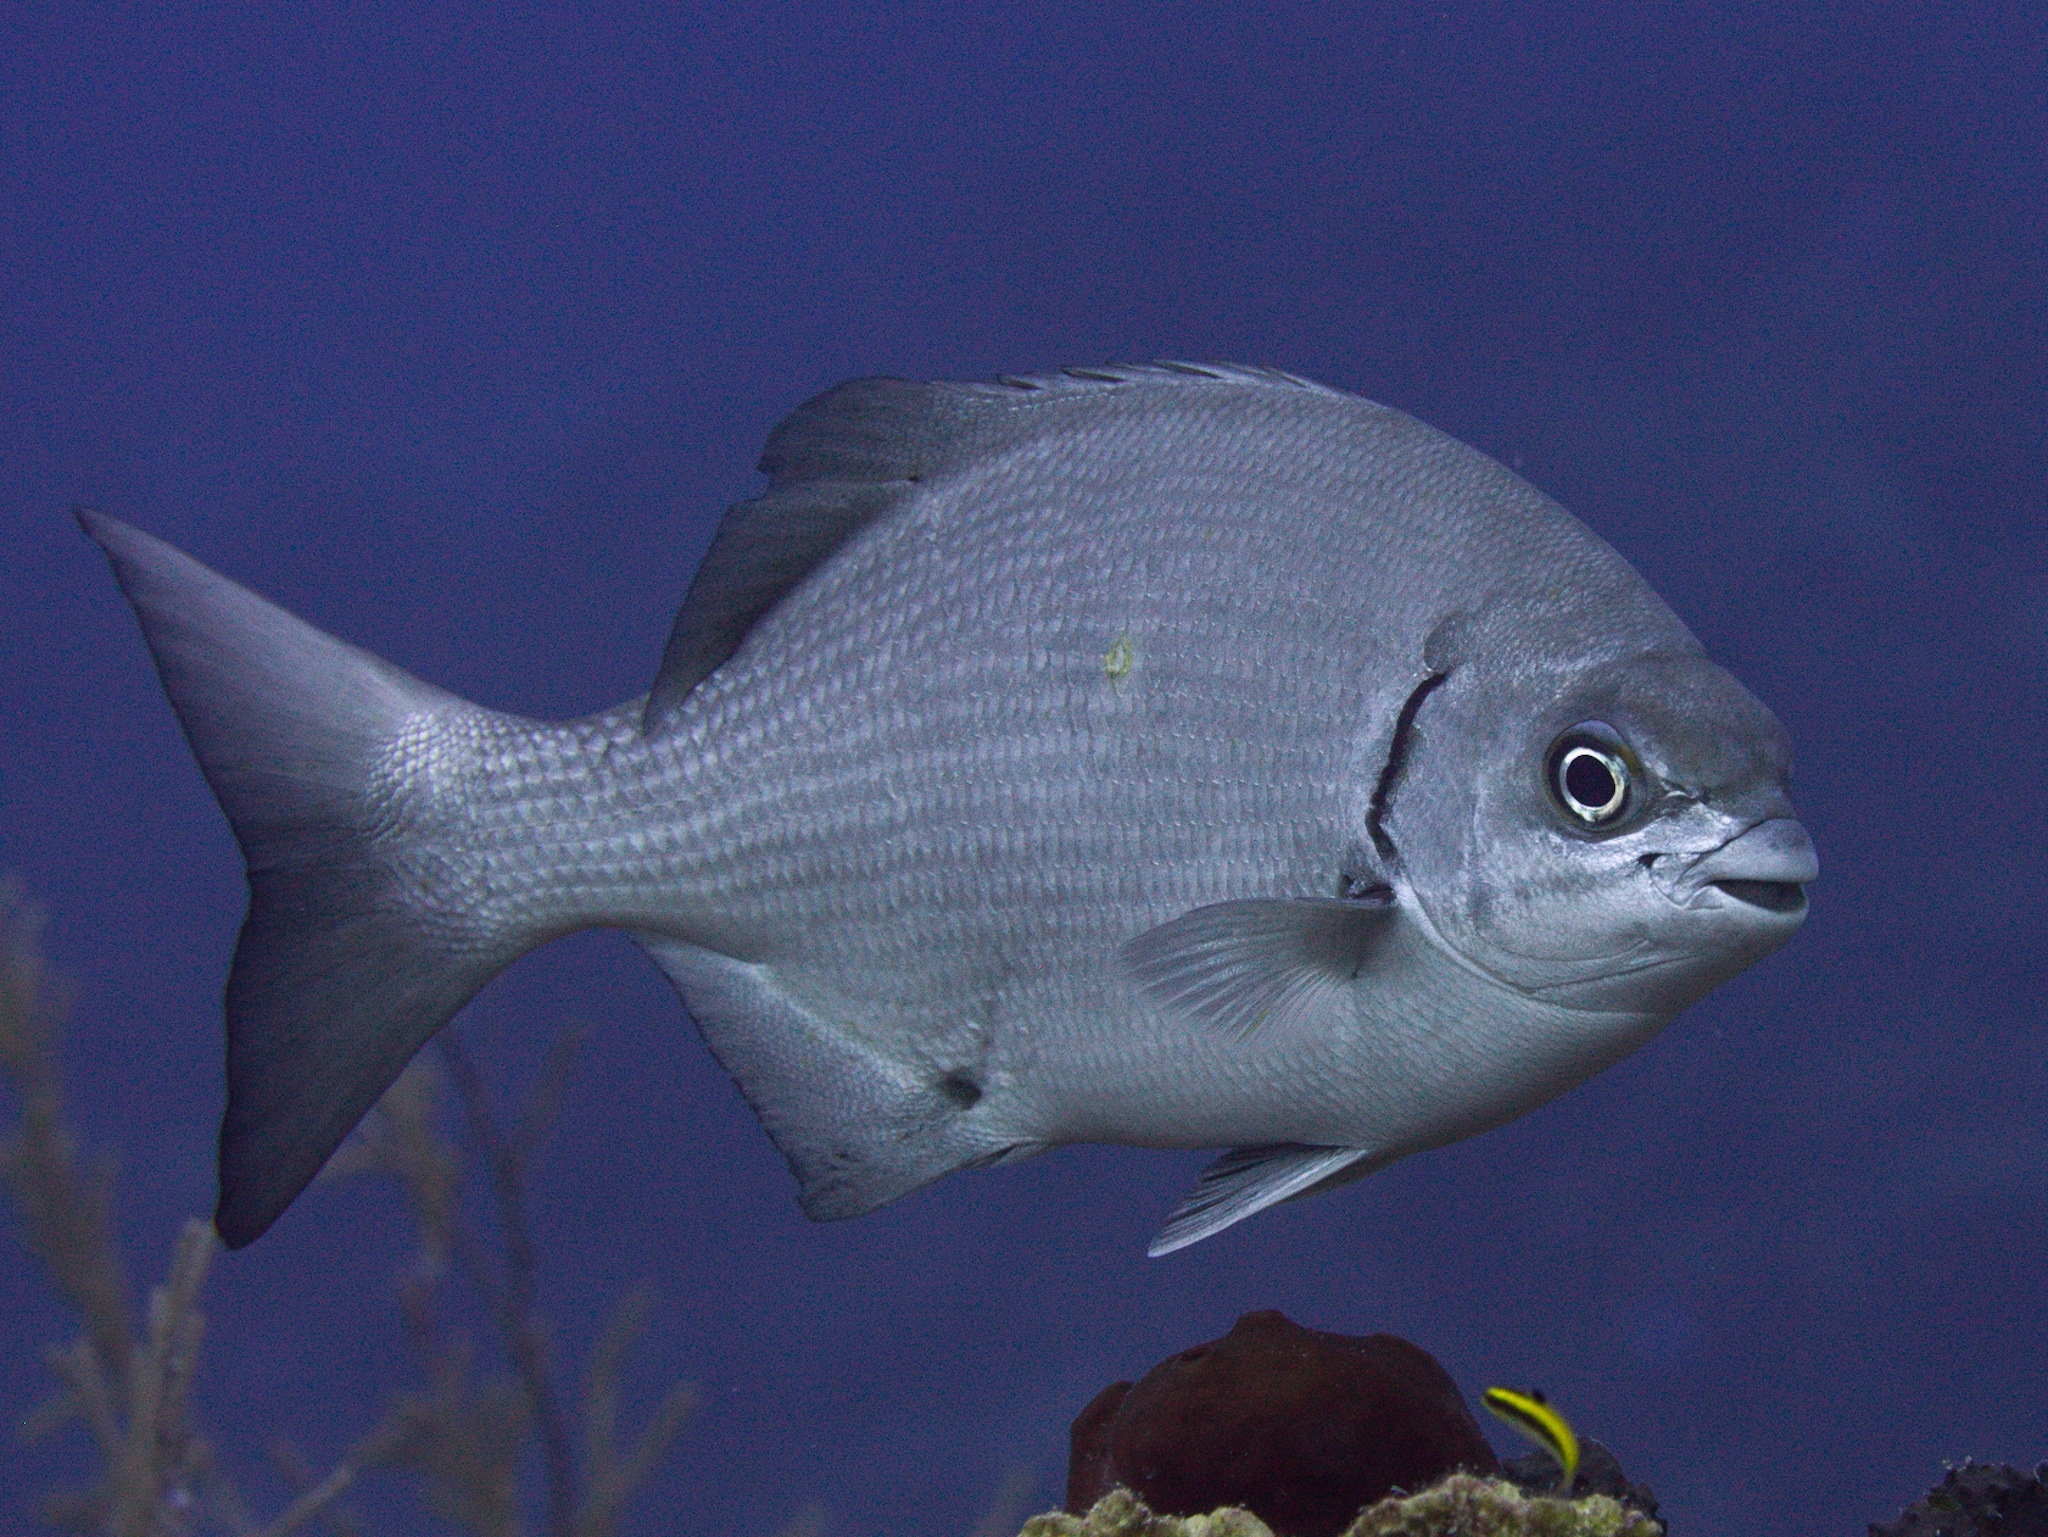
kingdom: Animalia
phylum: Chordata
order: Perciformes
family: Kyphosidae
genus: Kyphosus
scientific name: Kyphosus sectatrix
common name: Bermuda chub
